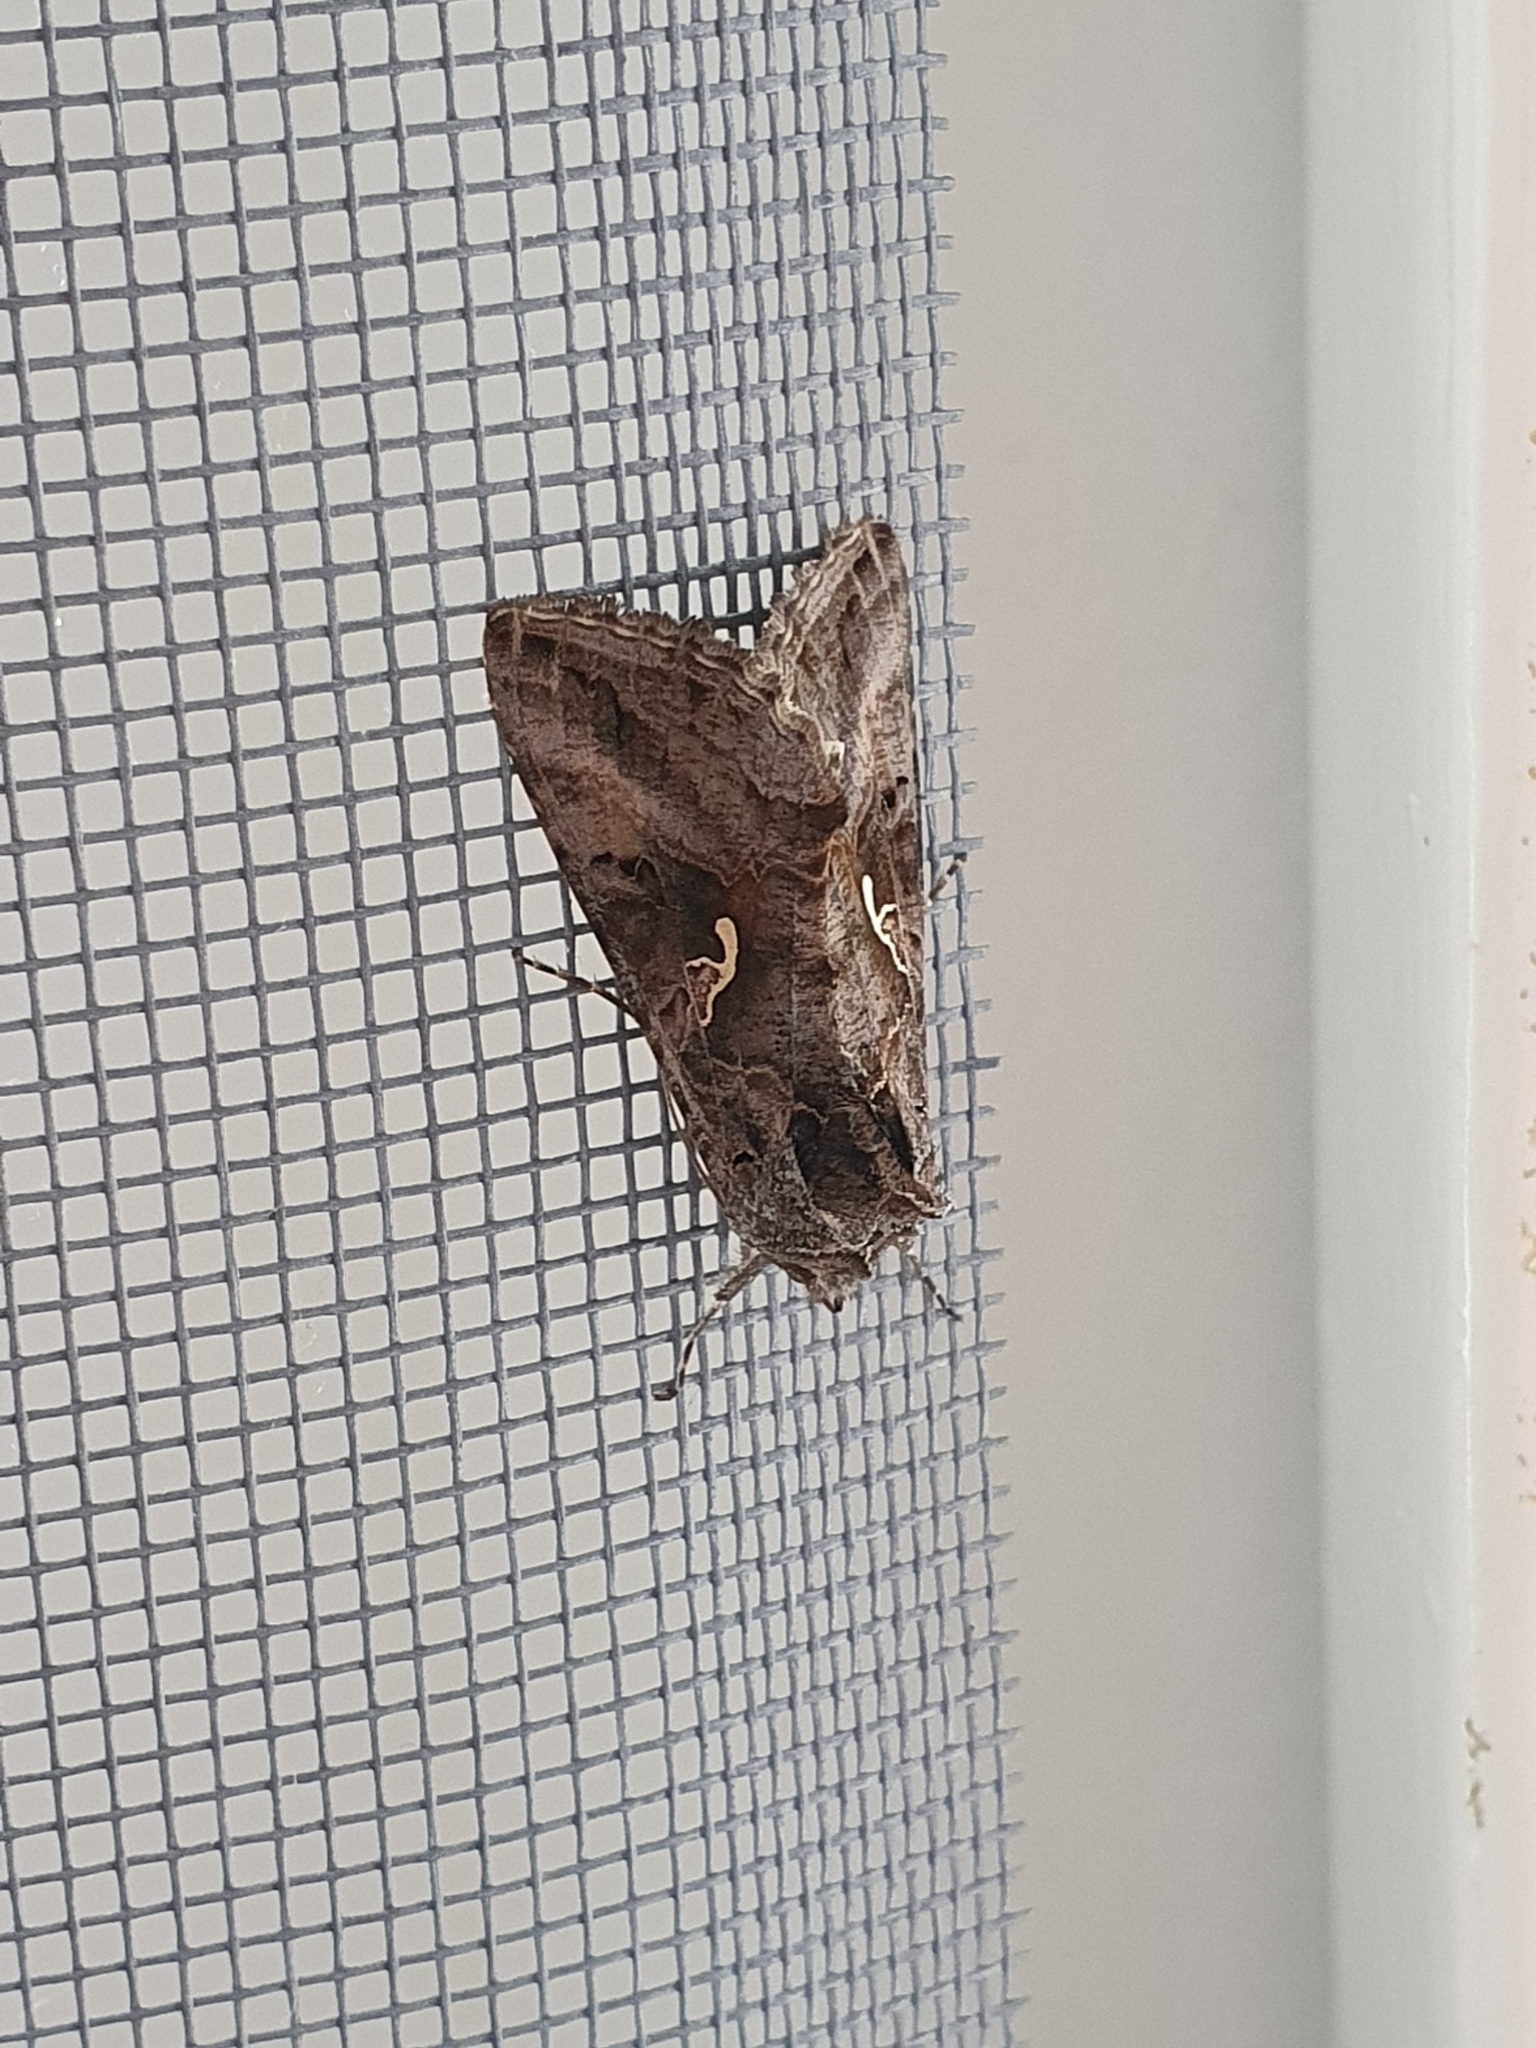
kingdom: Animalia
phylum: Arthropoda
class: Insecta
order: Lepidoptera
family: Noctuidae
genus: Autographa
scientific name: Autographa gamma
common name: Silver y
